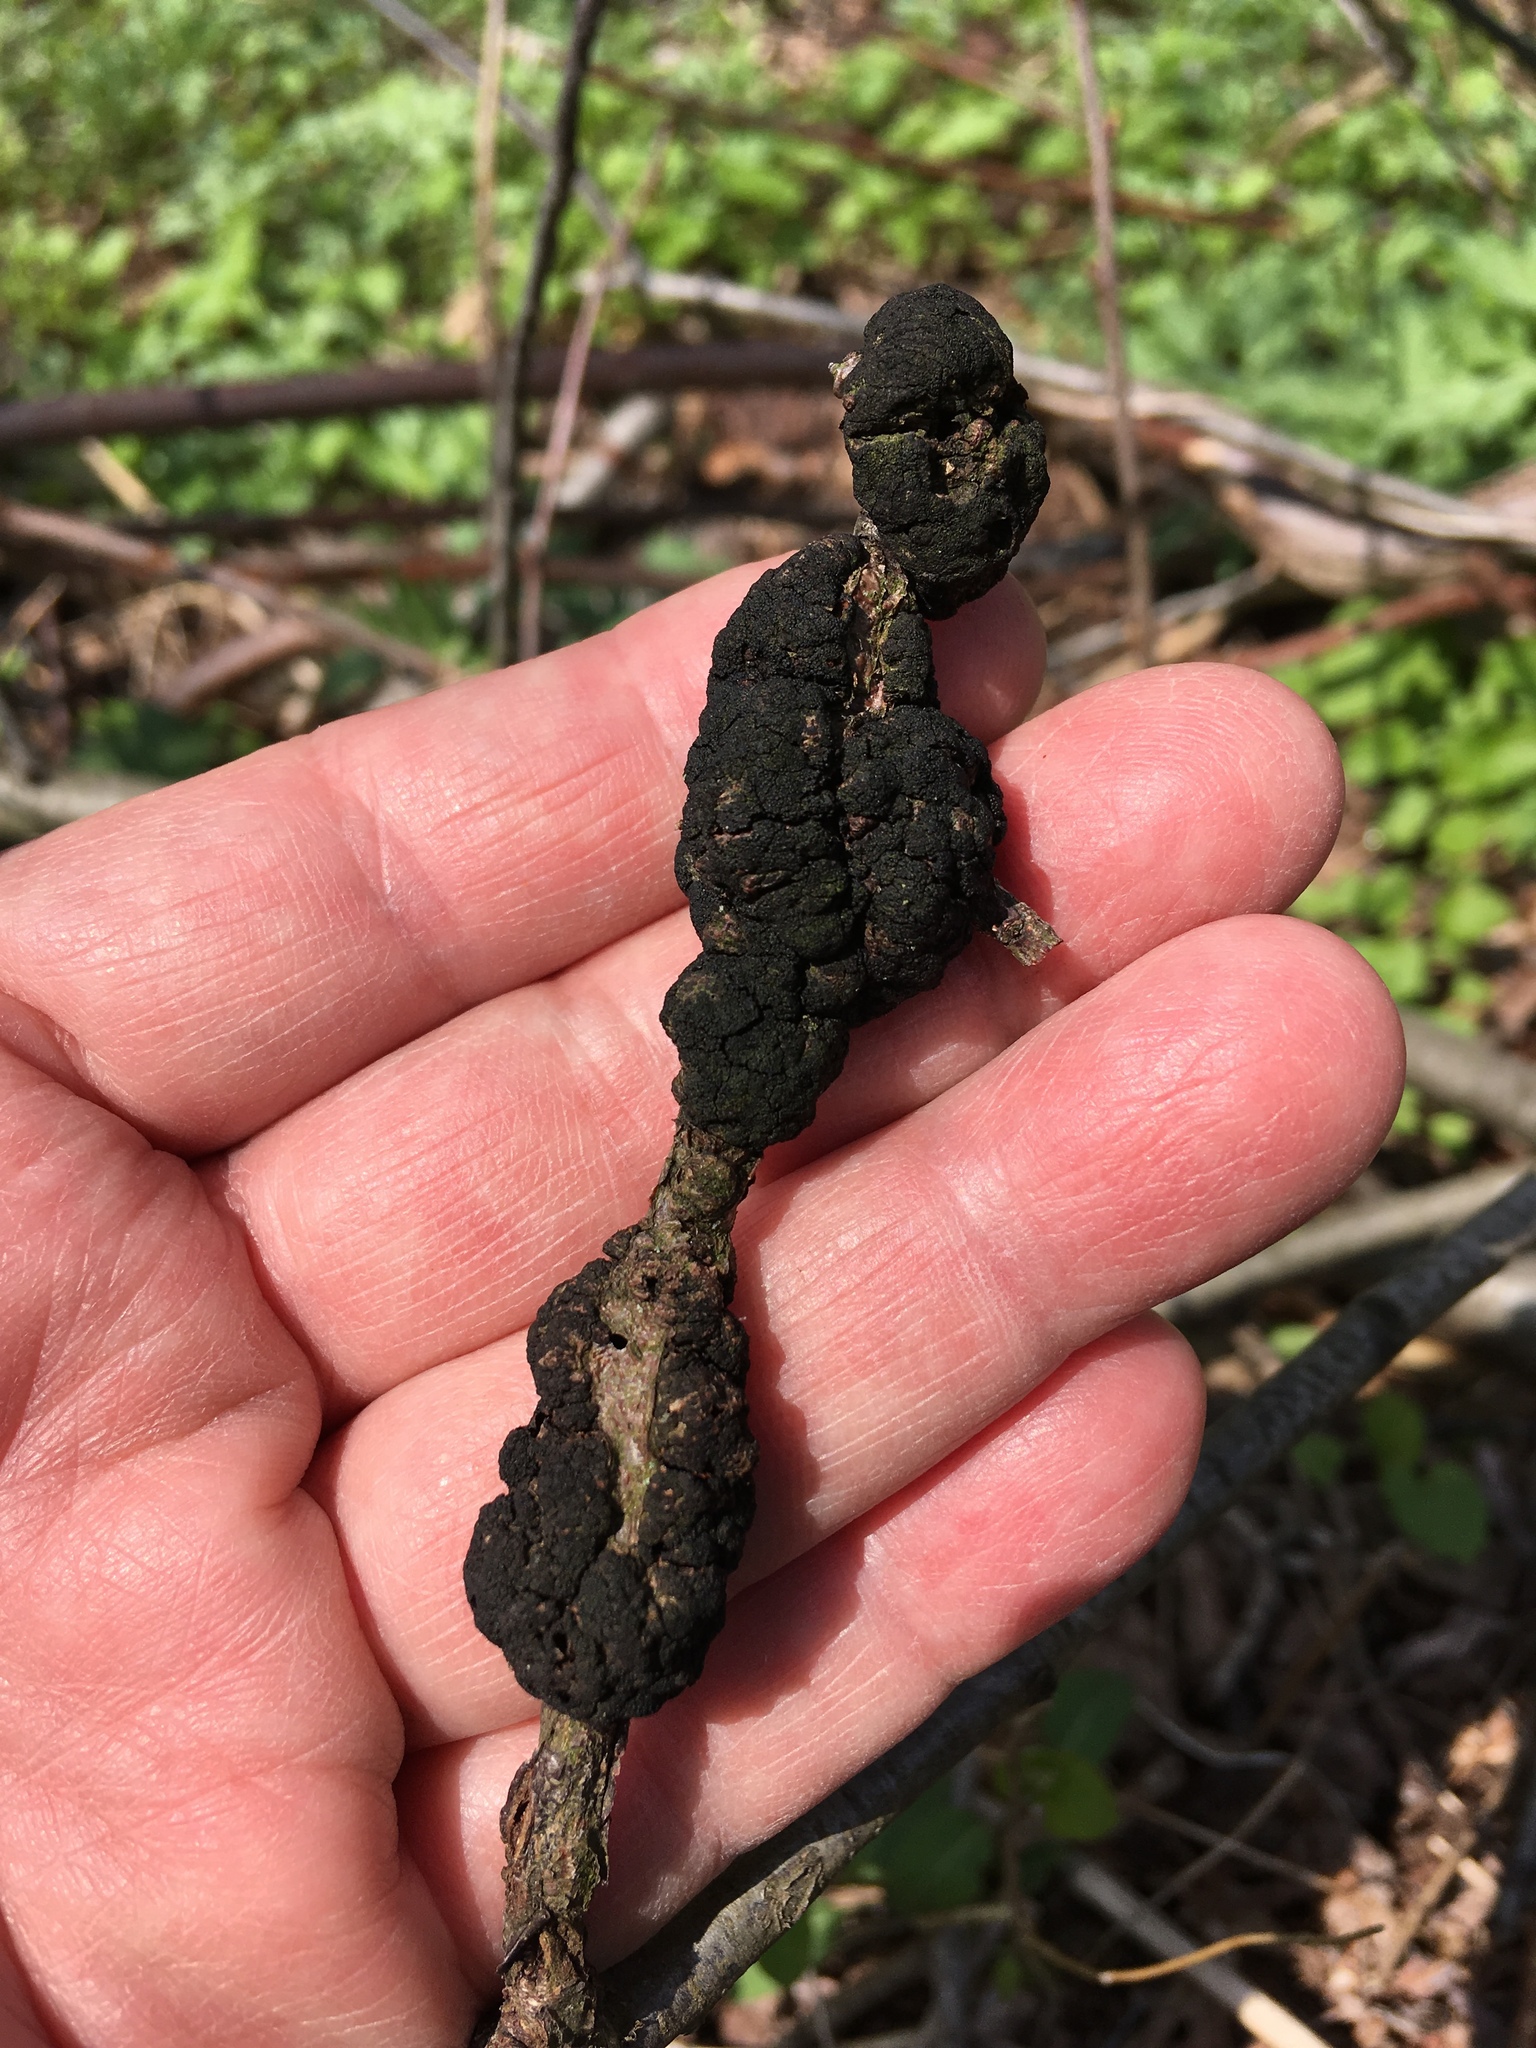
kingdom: Fungi
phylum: Ascomycota
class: Dothideomycetes
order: Venturiales
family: Venturiaceae
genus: Apiosporina
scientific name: Apiosporina morbosa
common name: Black knot
